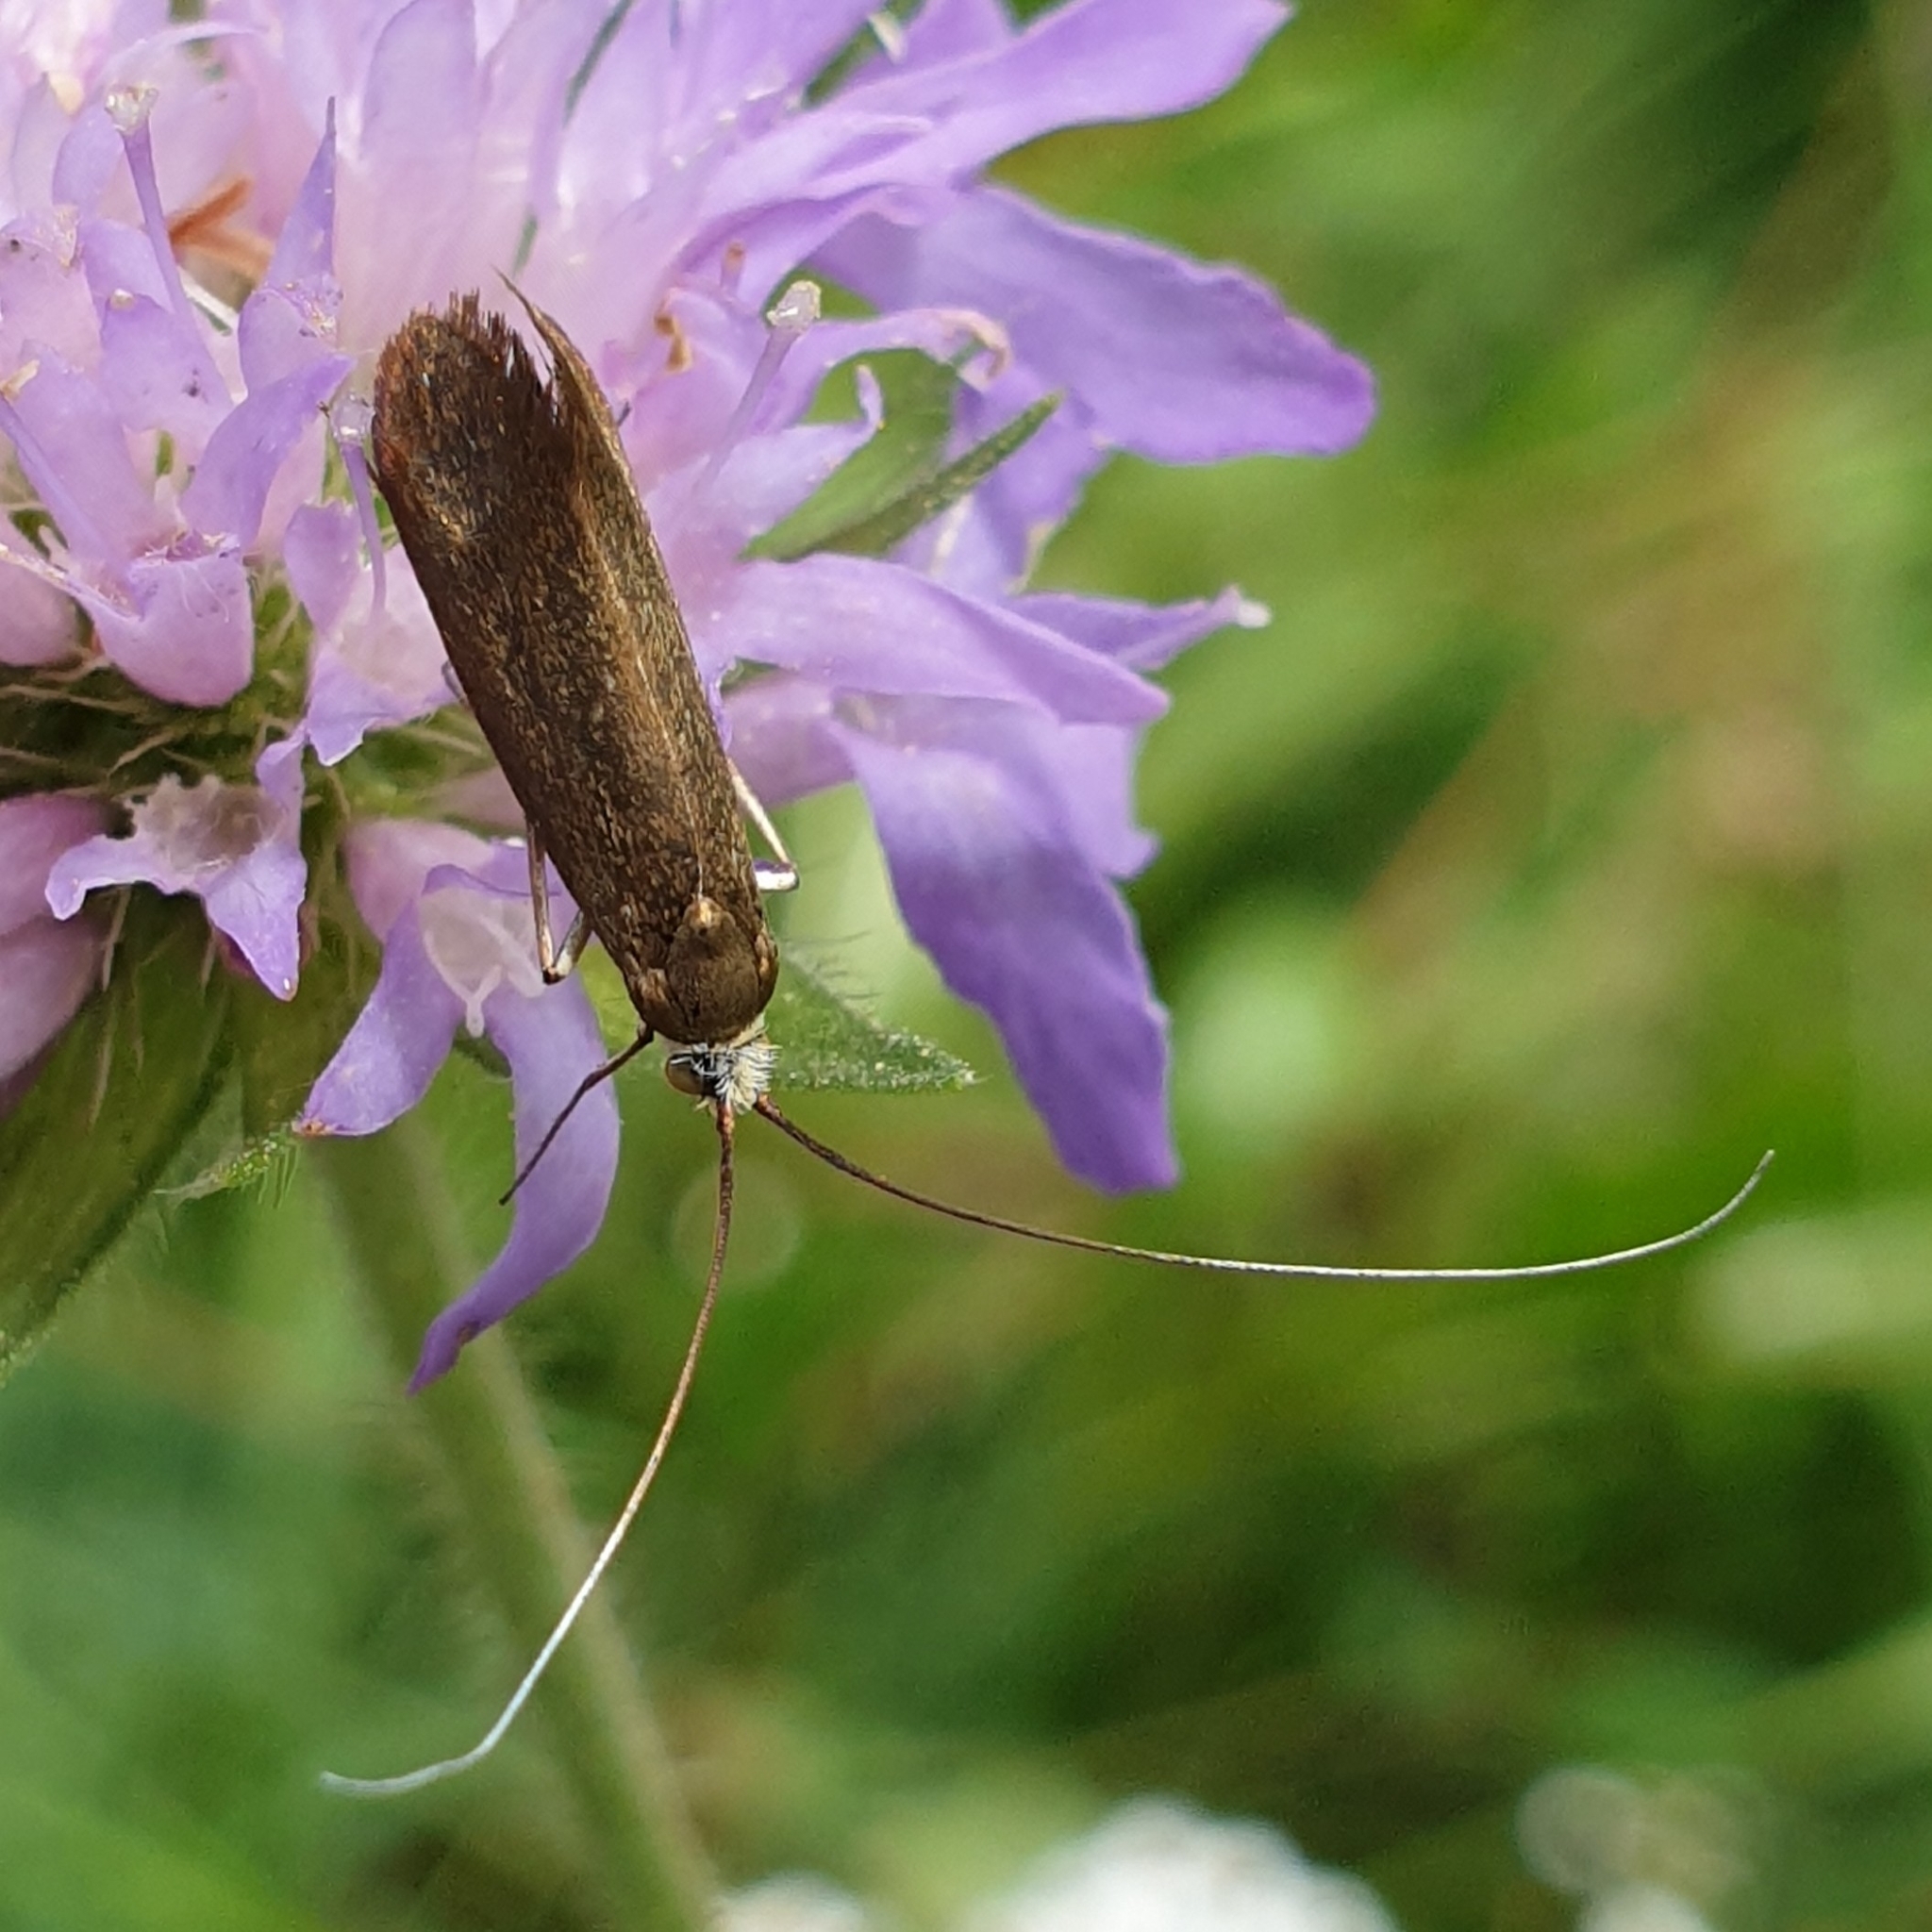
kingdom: Animalia
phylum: Arthropoda
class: Insecta
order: Lepidoptera
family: Adelidae
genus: Nemophora
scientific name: Nemophora metallica
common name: Brassy long-horn
